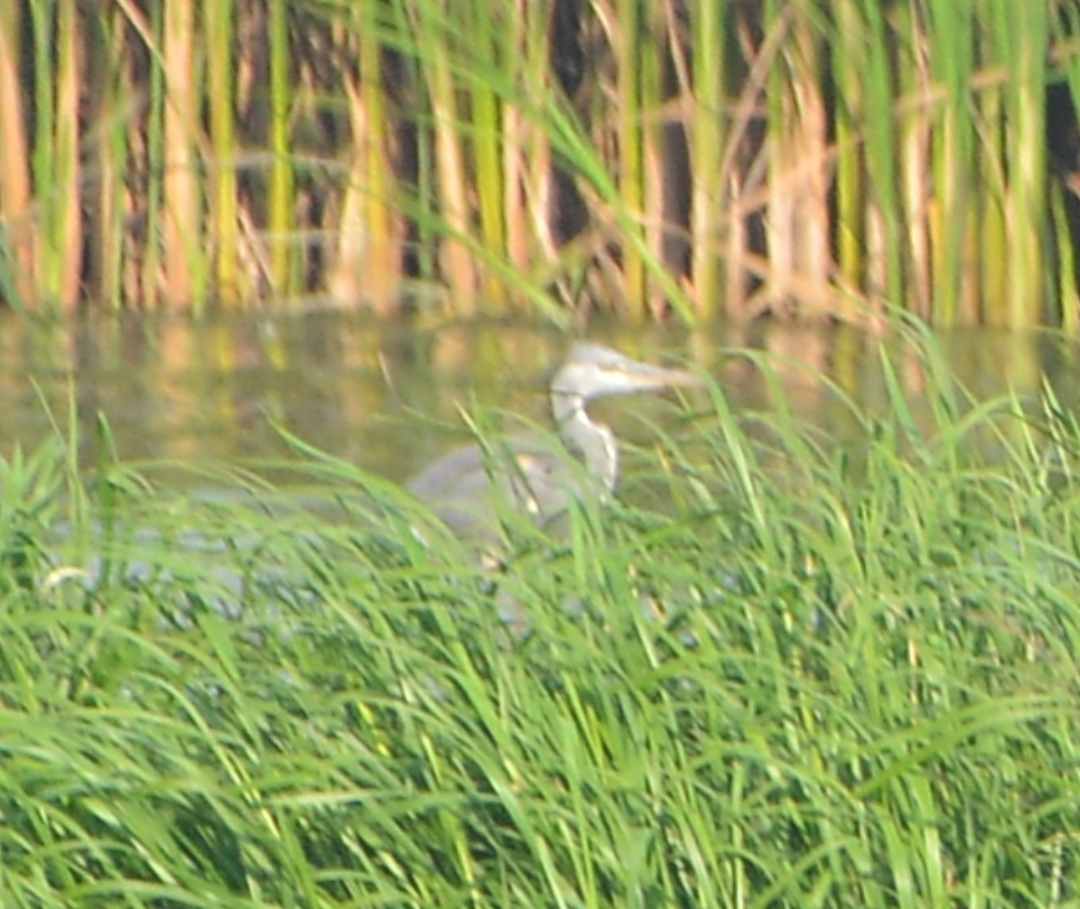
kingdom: Animalia
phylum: Chordata
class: Aves
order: Pelecaniformes
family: Ardeidae
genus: Ardea
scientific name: Ardea cinerea
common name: Grey heron
